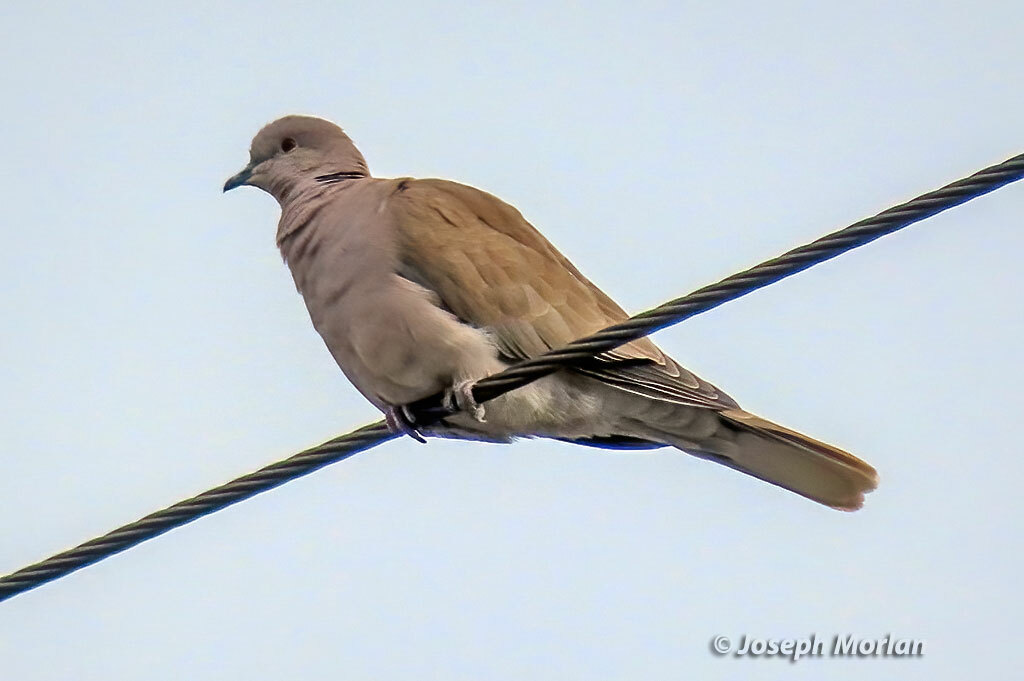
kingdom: Animalia
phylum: Chordata
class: Aves
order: Columbiformes
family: Columbidae
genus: Streptopelia
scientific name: Streptopelia decaocto
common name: Eurasian collared dove
